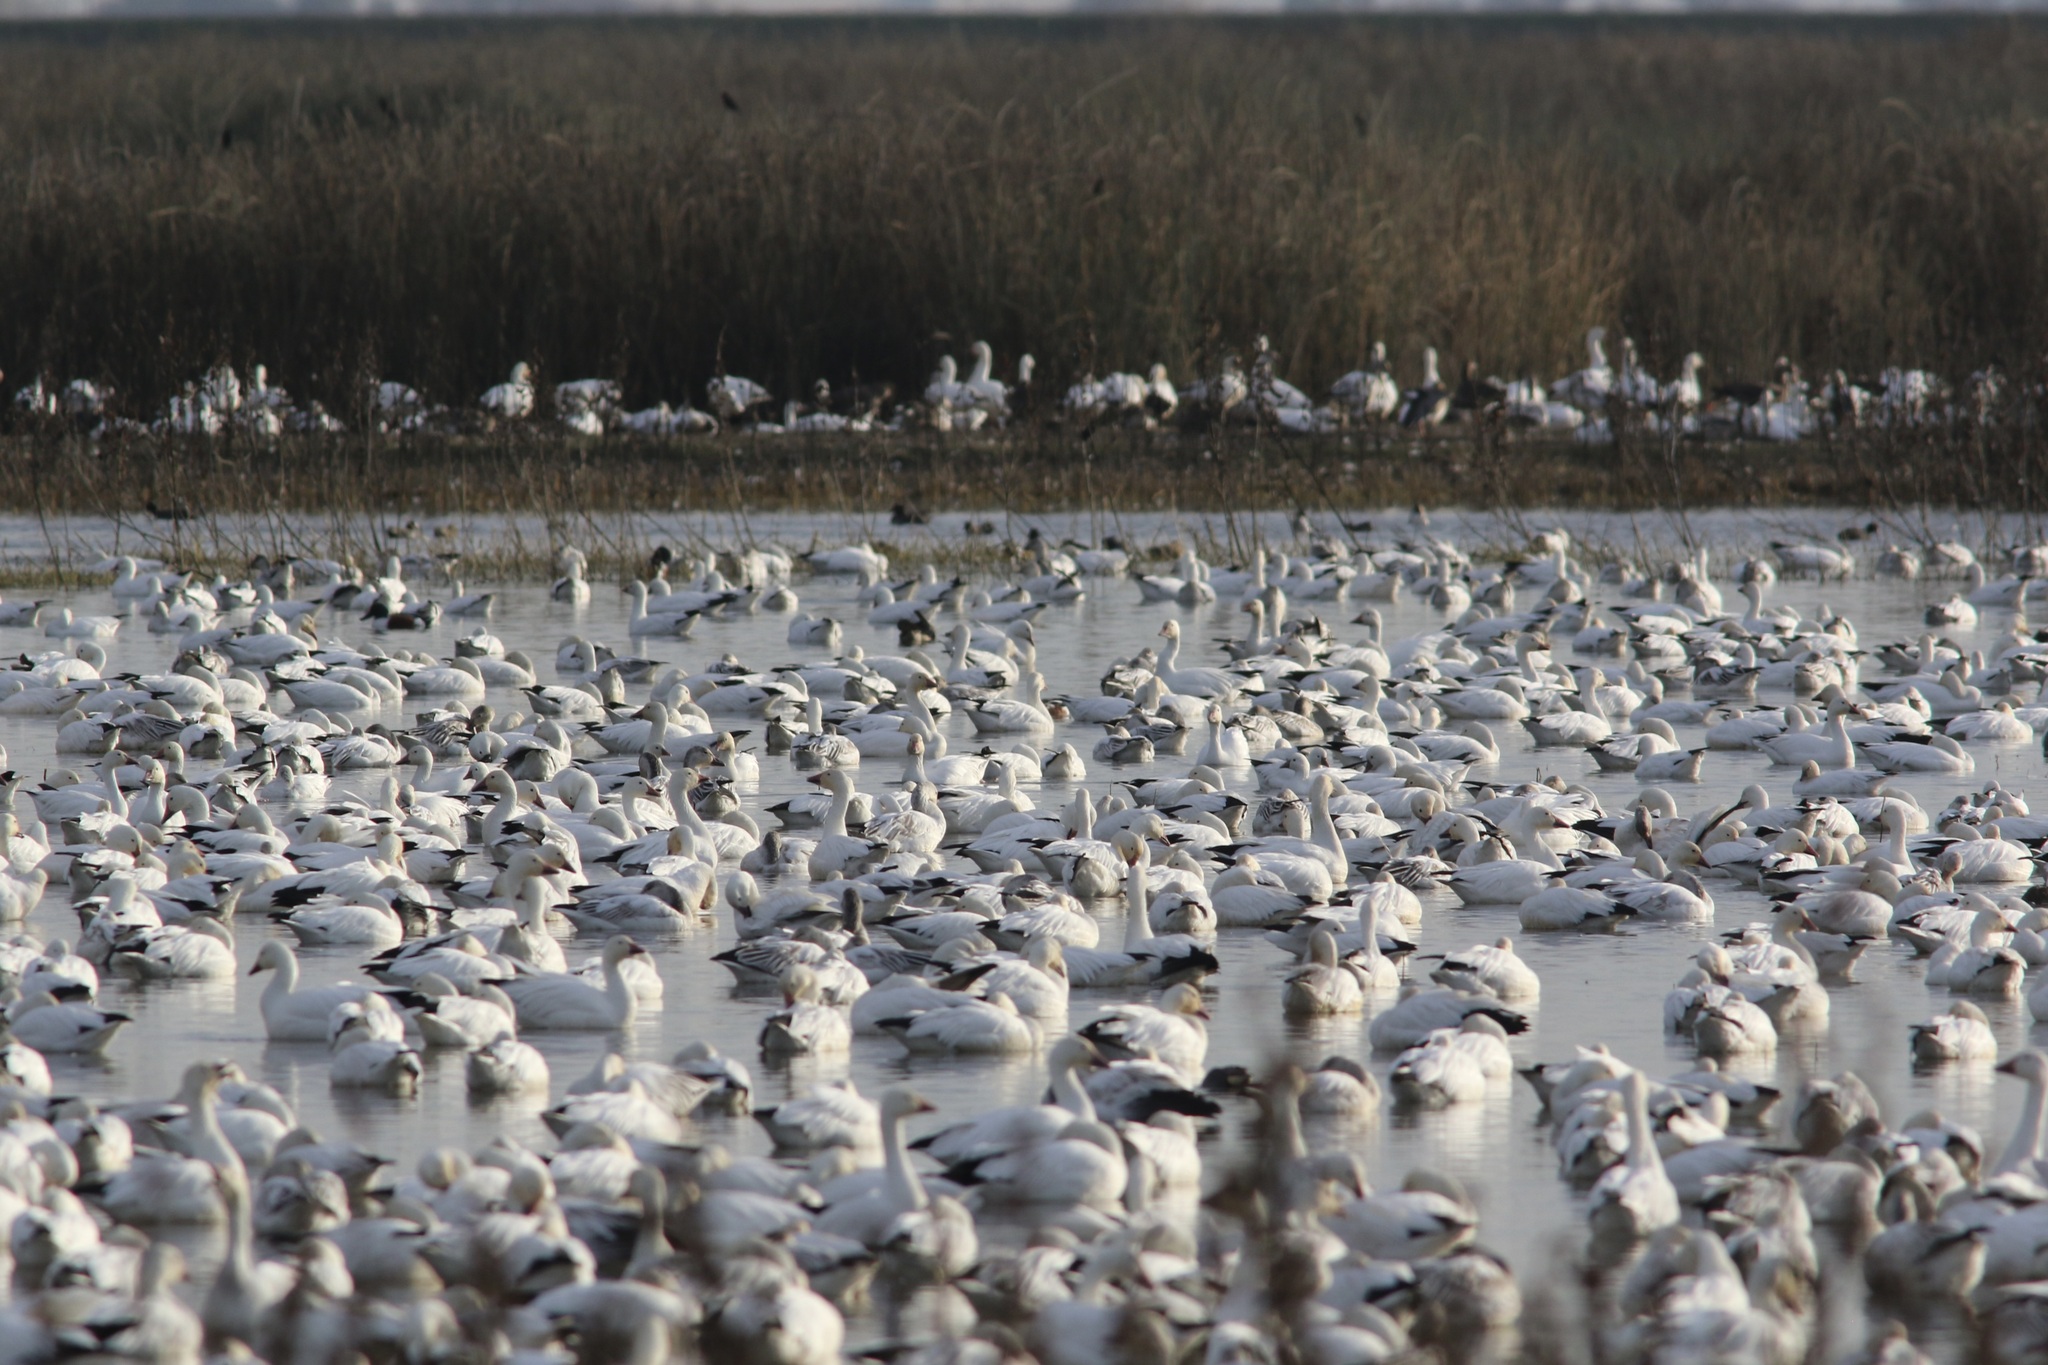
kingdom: Animalia
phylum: Chordata
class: Aves
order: Anseriformes
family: Anatidae
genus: Anser
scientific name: Anser caerulescens
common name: Snow goose
